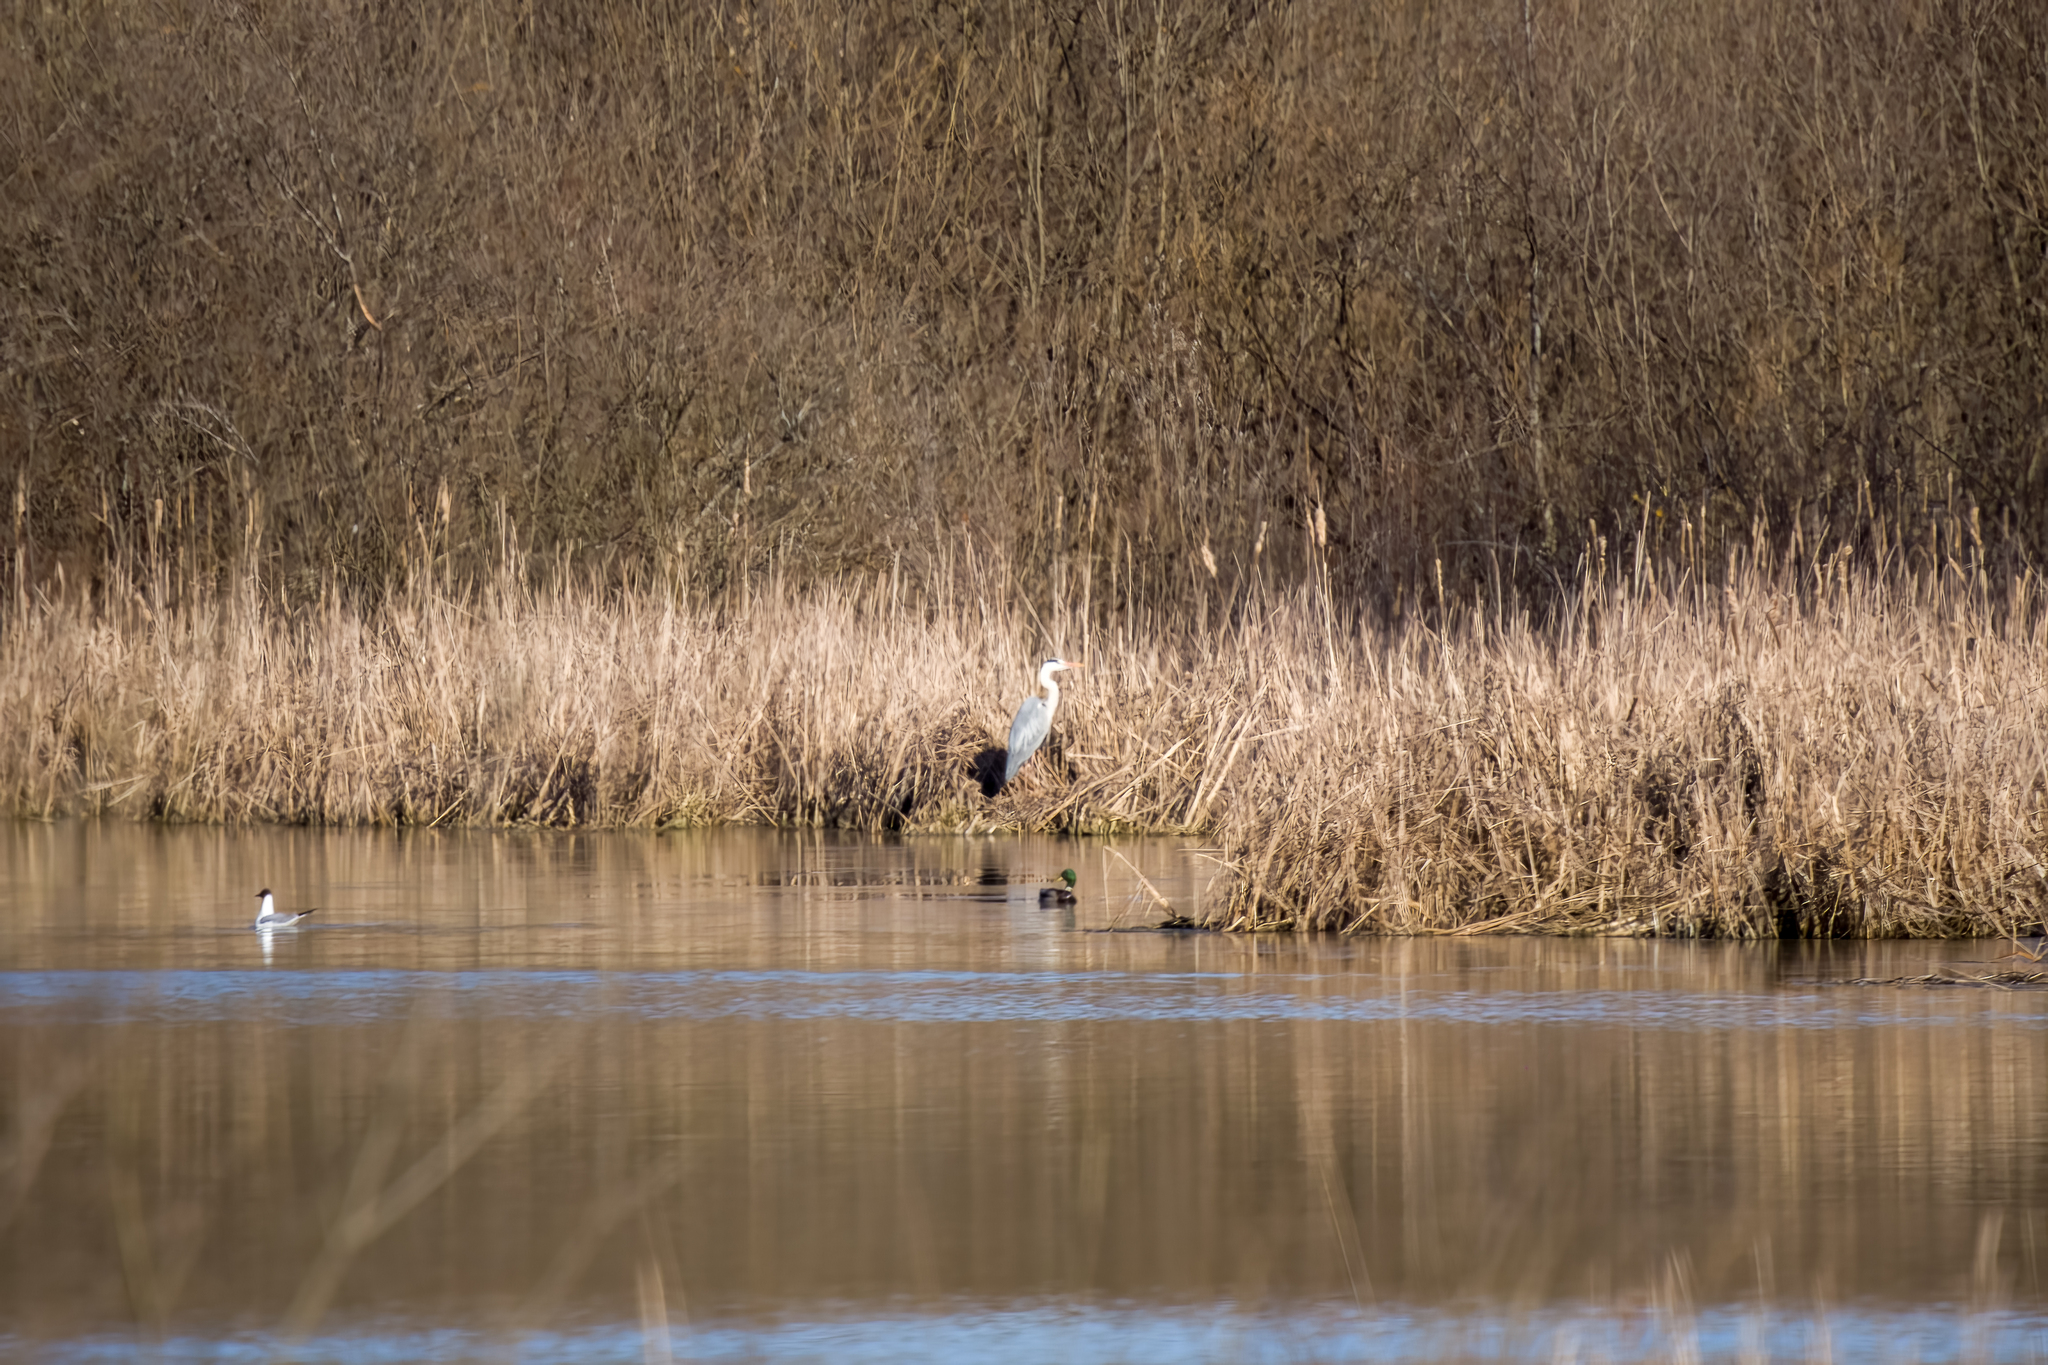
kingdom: Animalia
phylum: Chordata
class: Aves
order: Pelecaniformes
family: Ardeidae
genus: Ardea
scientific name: Ardea cinerea
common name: Grey heron
